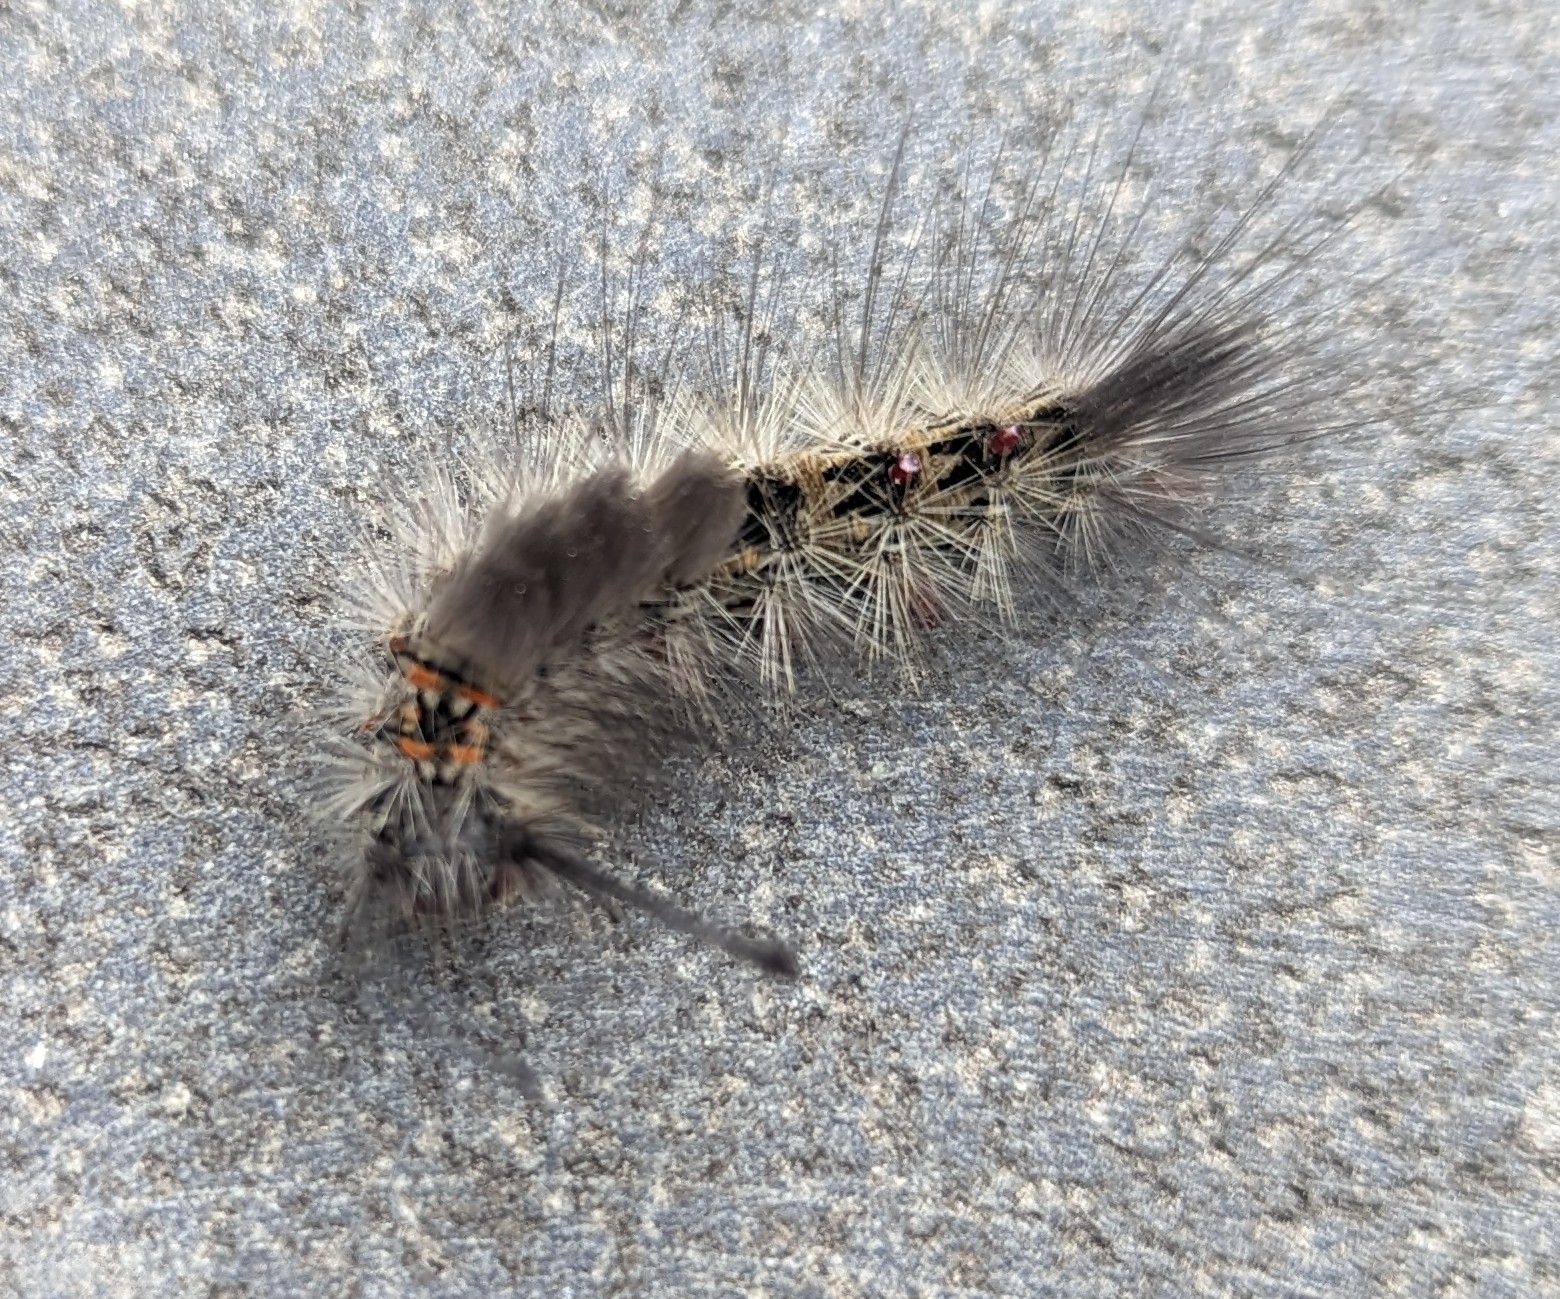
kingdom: Animalia
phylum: Arthropoda
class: Insecta
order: Lepidoptera
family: Erebidae
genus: Orgyia
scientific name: Orgyia
